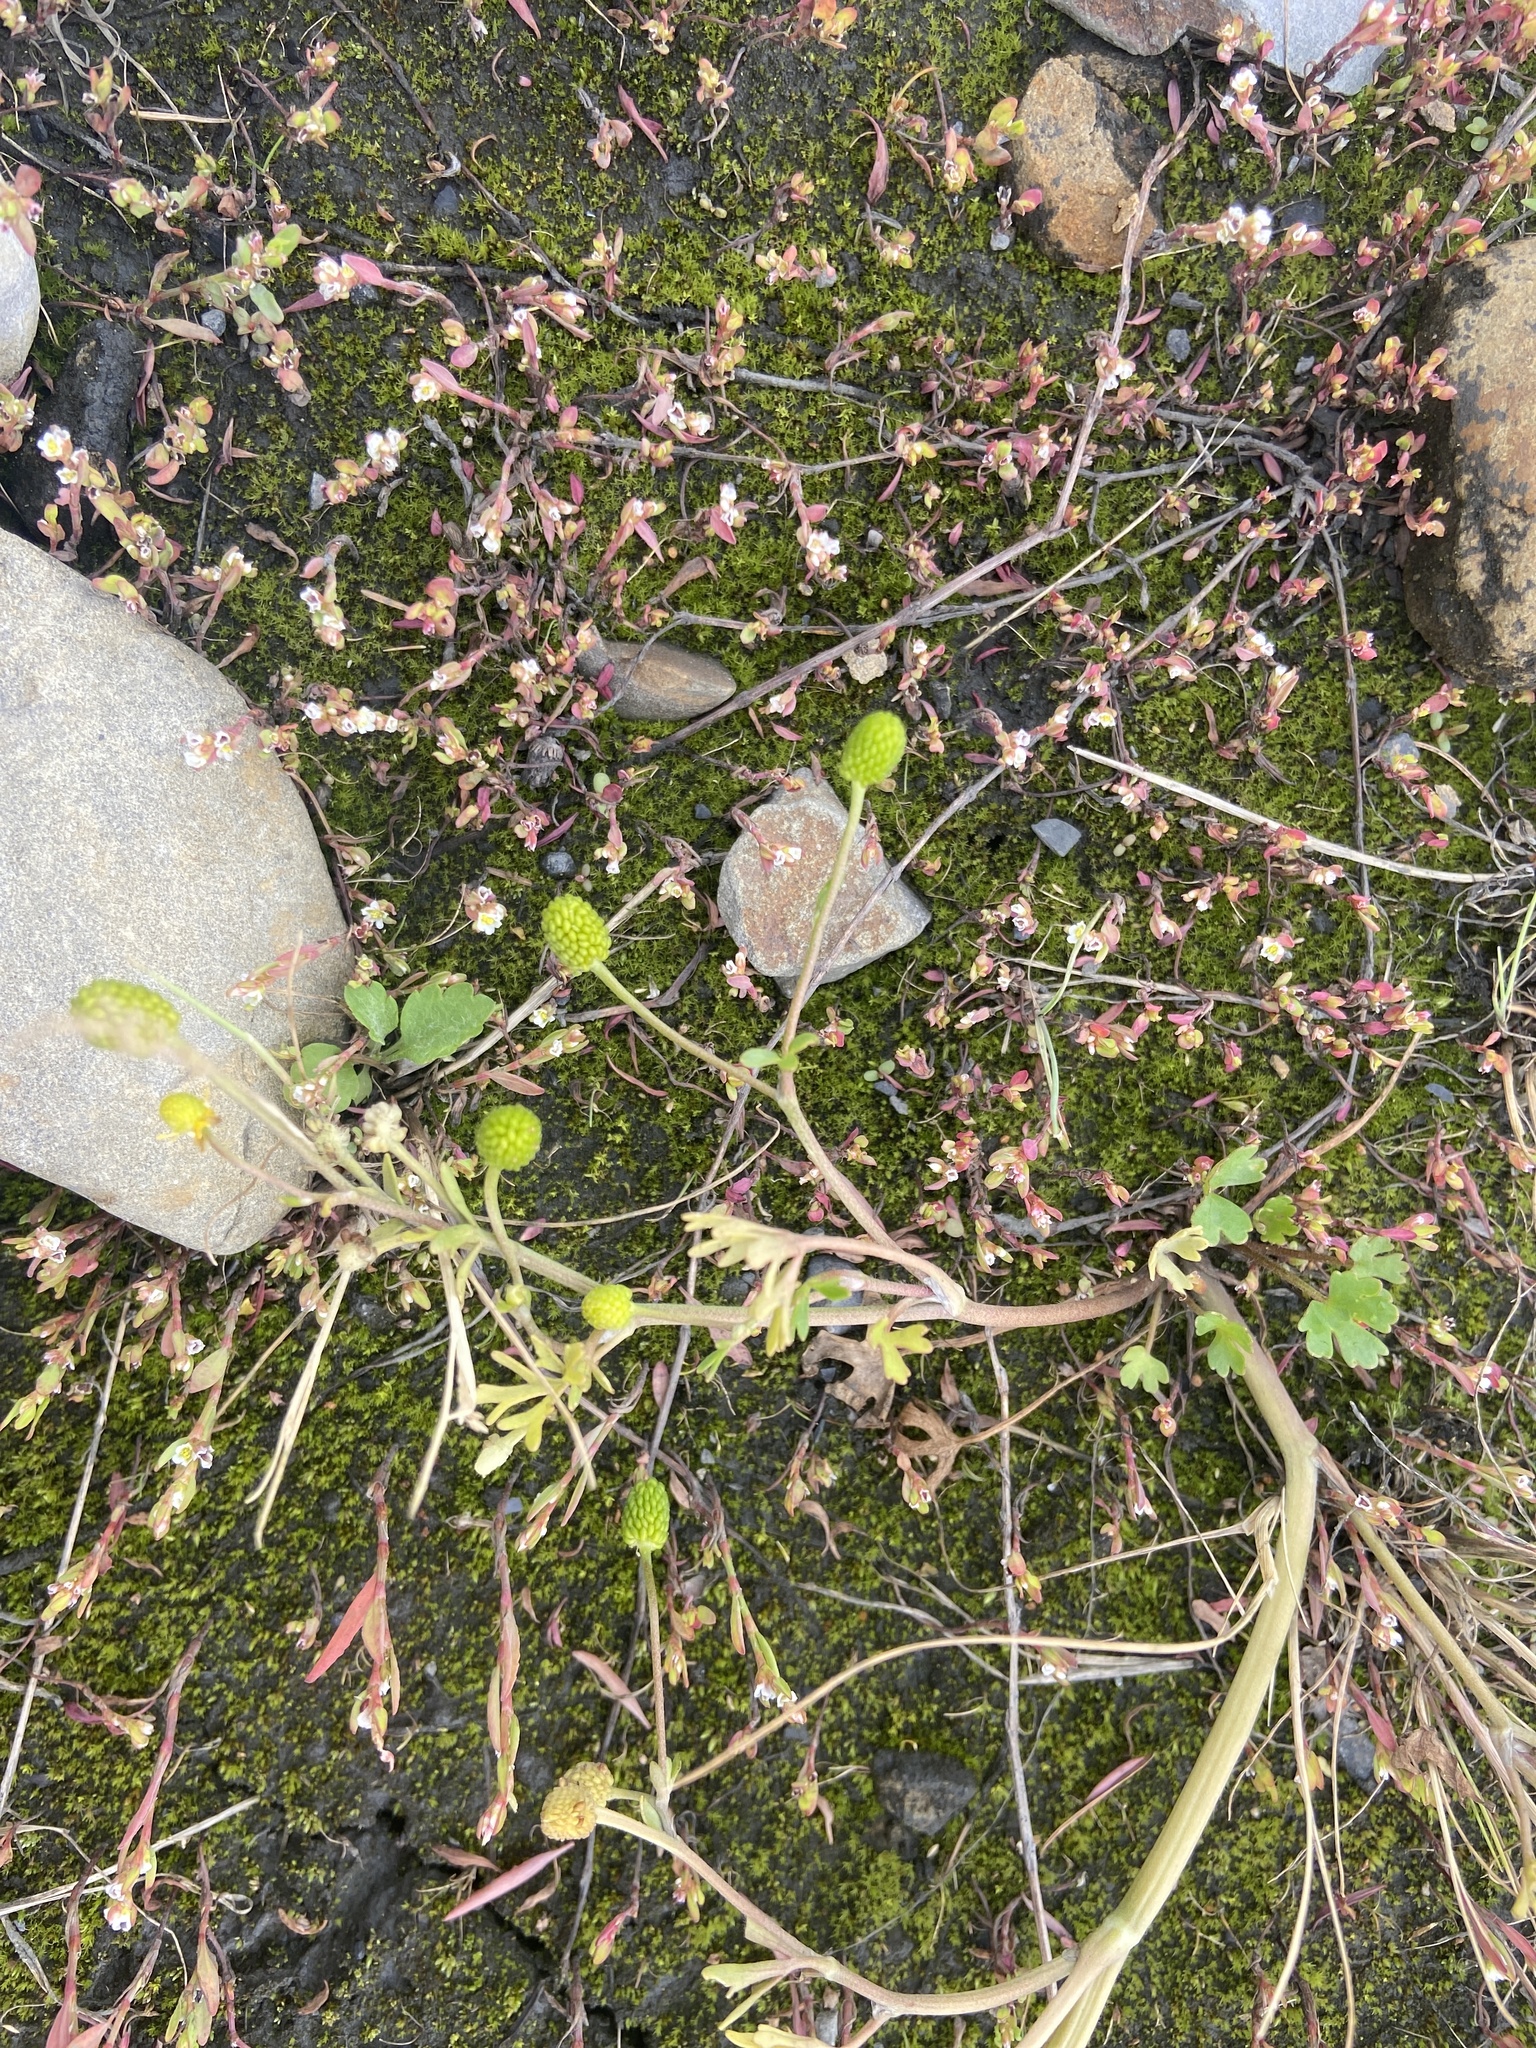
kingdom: Plantae
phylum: Tracheophyta
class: Magnoliopsida
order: Ranunculales
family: Ranunculaceae
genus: Ranunculus
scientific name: Ranunculus sceleratus
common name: Celery-leaved buttercup
